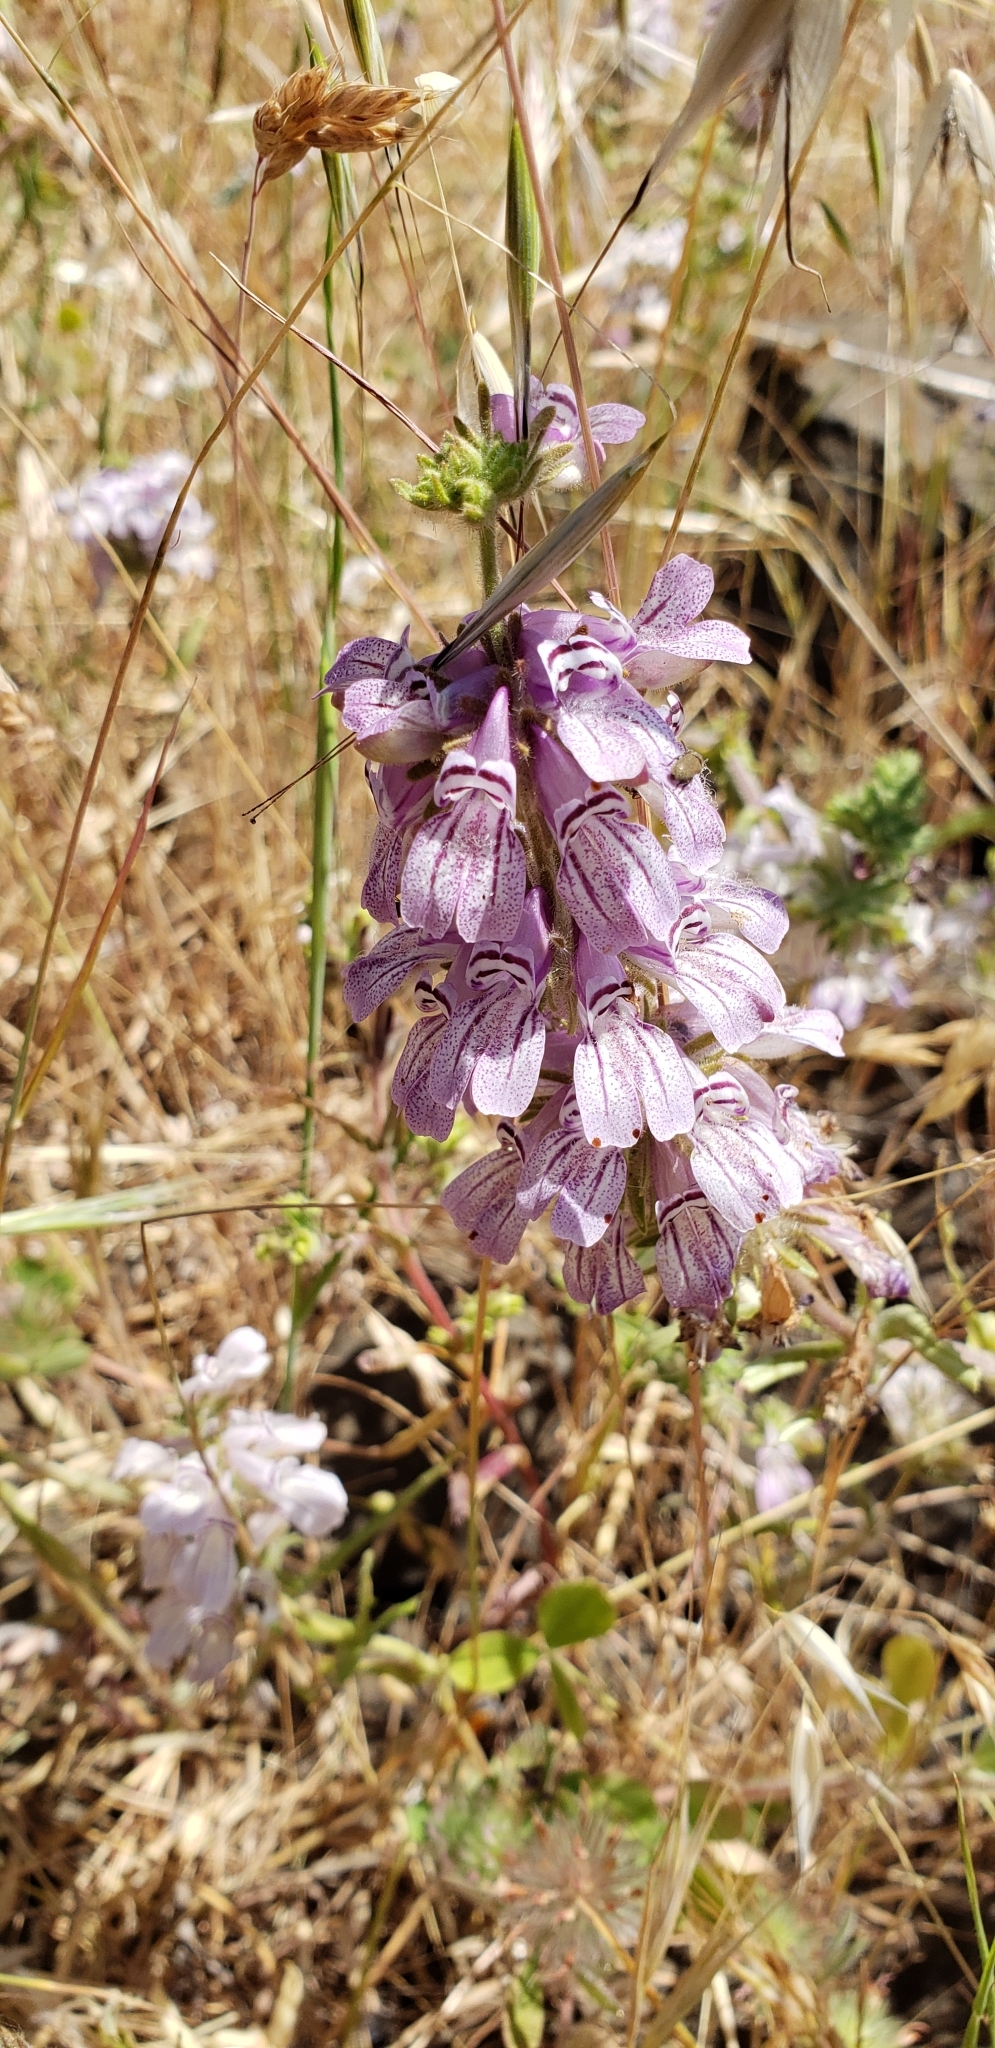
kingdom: Plantae
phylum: Tracheophyta
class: Magnoliopsida
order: Lamiales
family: Plantaginaceae
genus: Collinsia
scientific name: Collinsia tinctoria
